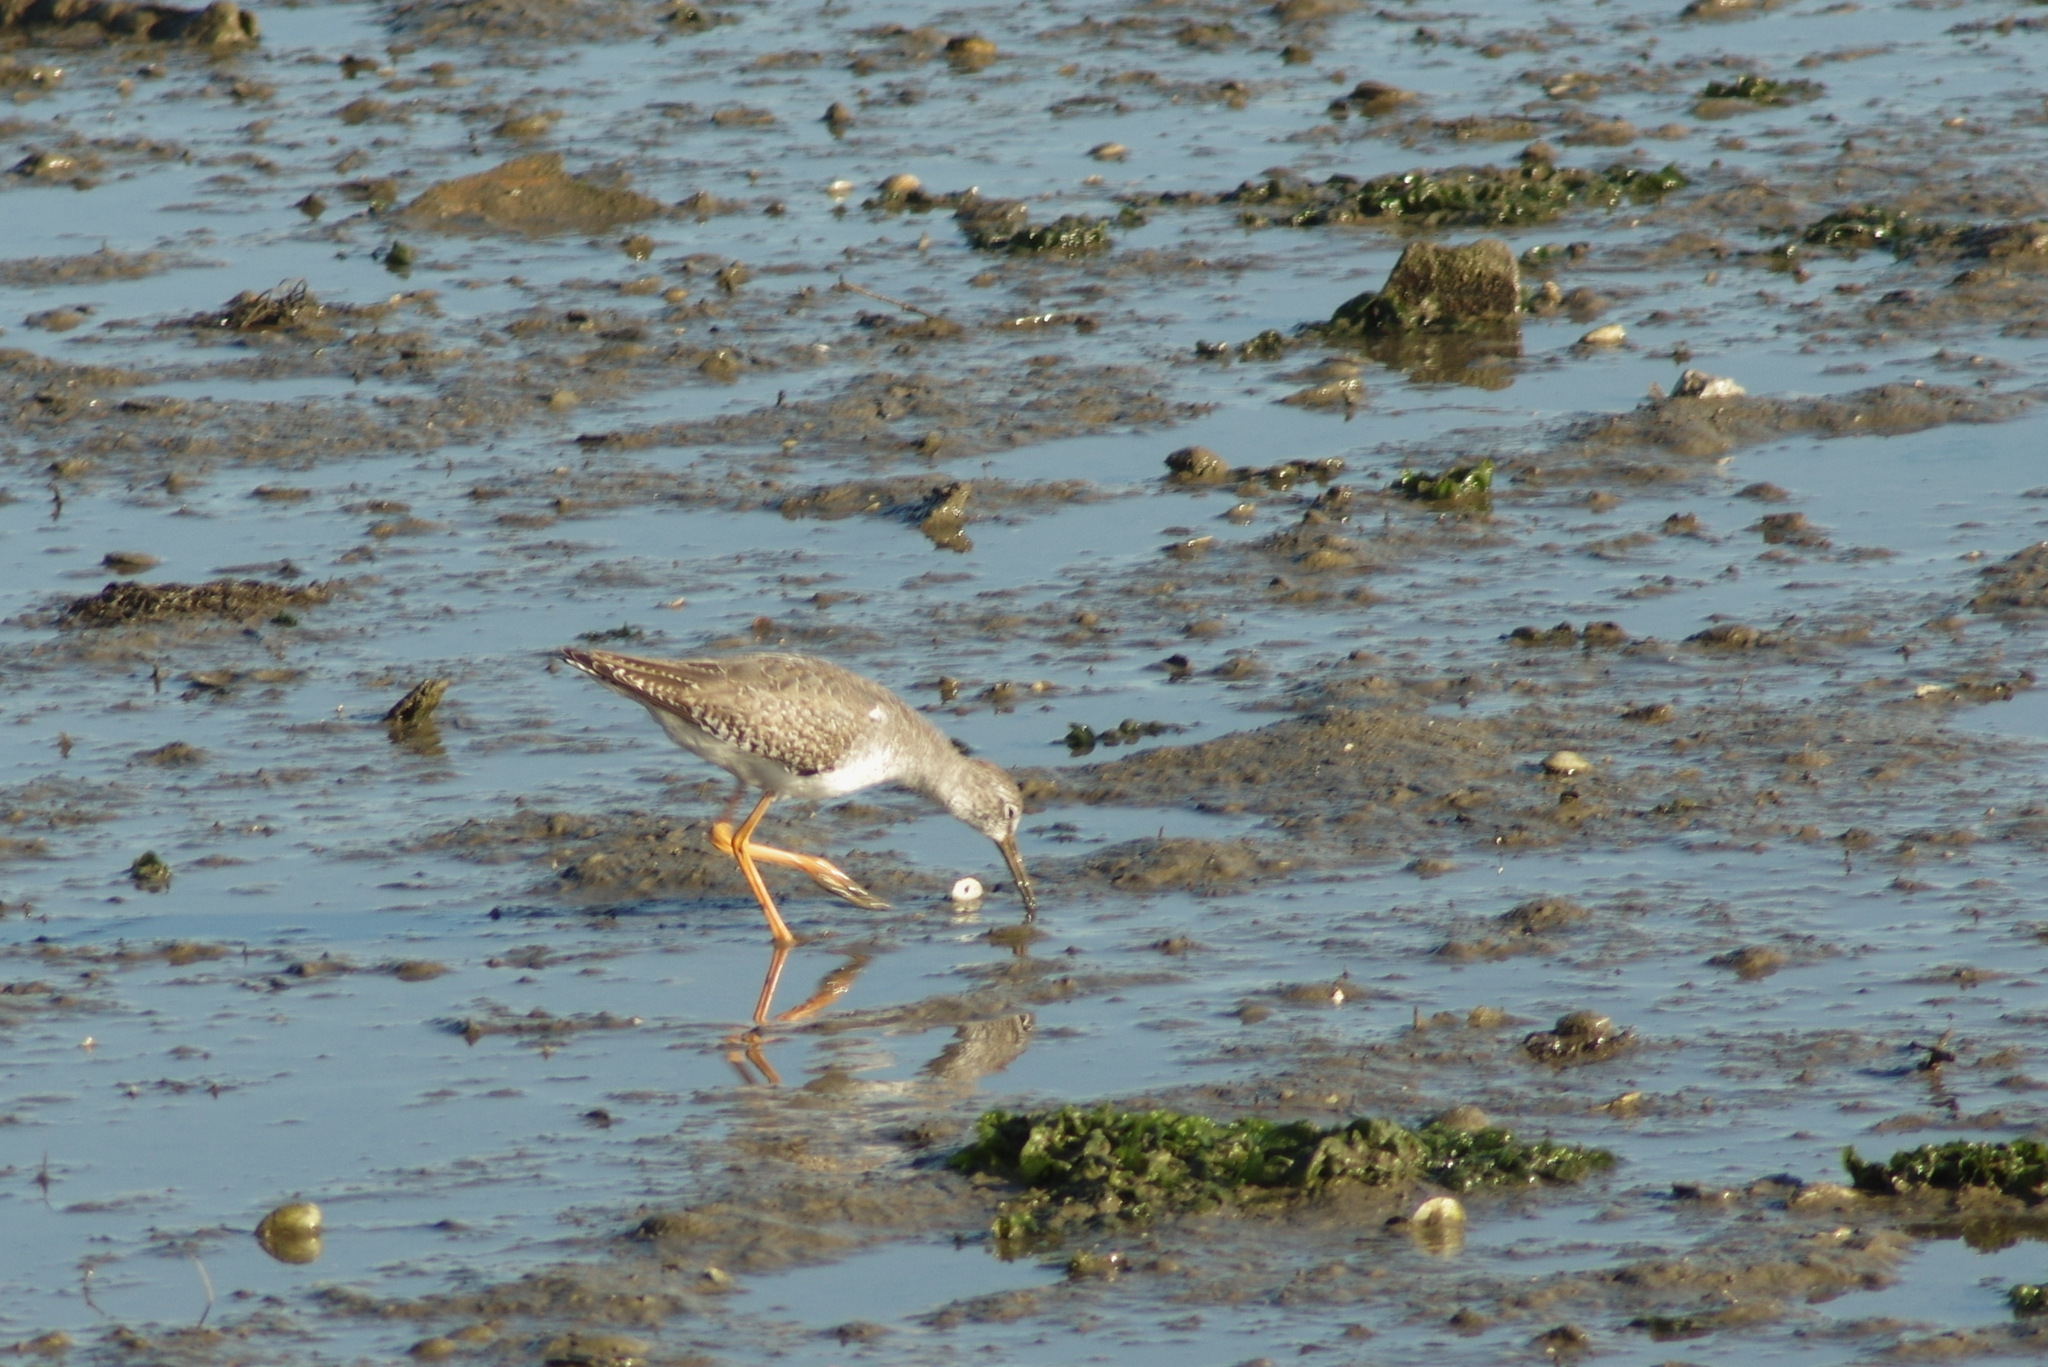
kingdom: Animalia
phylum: Chordata
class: Aves
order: Charadriiformes
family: Scolopacidae
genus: Tringa
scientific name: Tringa totanus
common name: Common redshank
